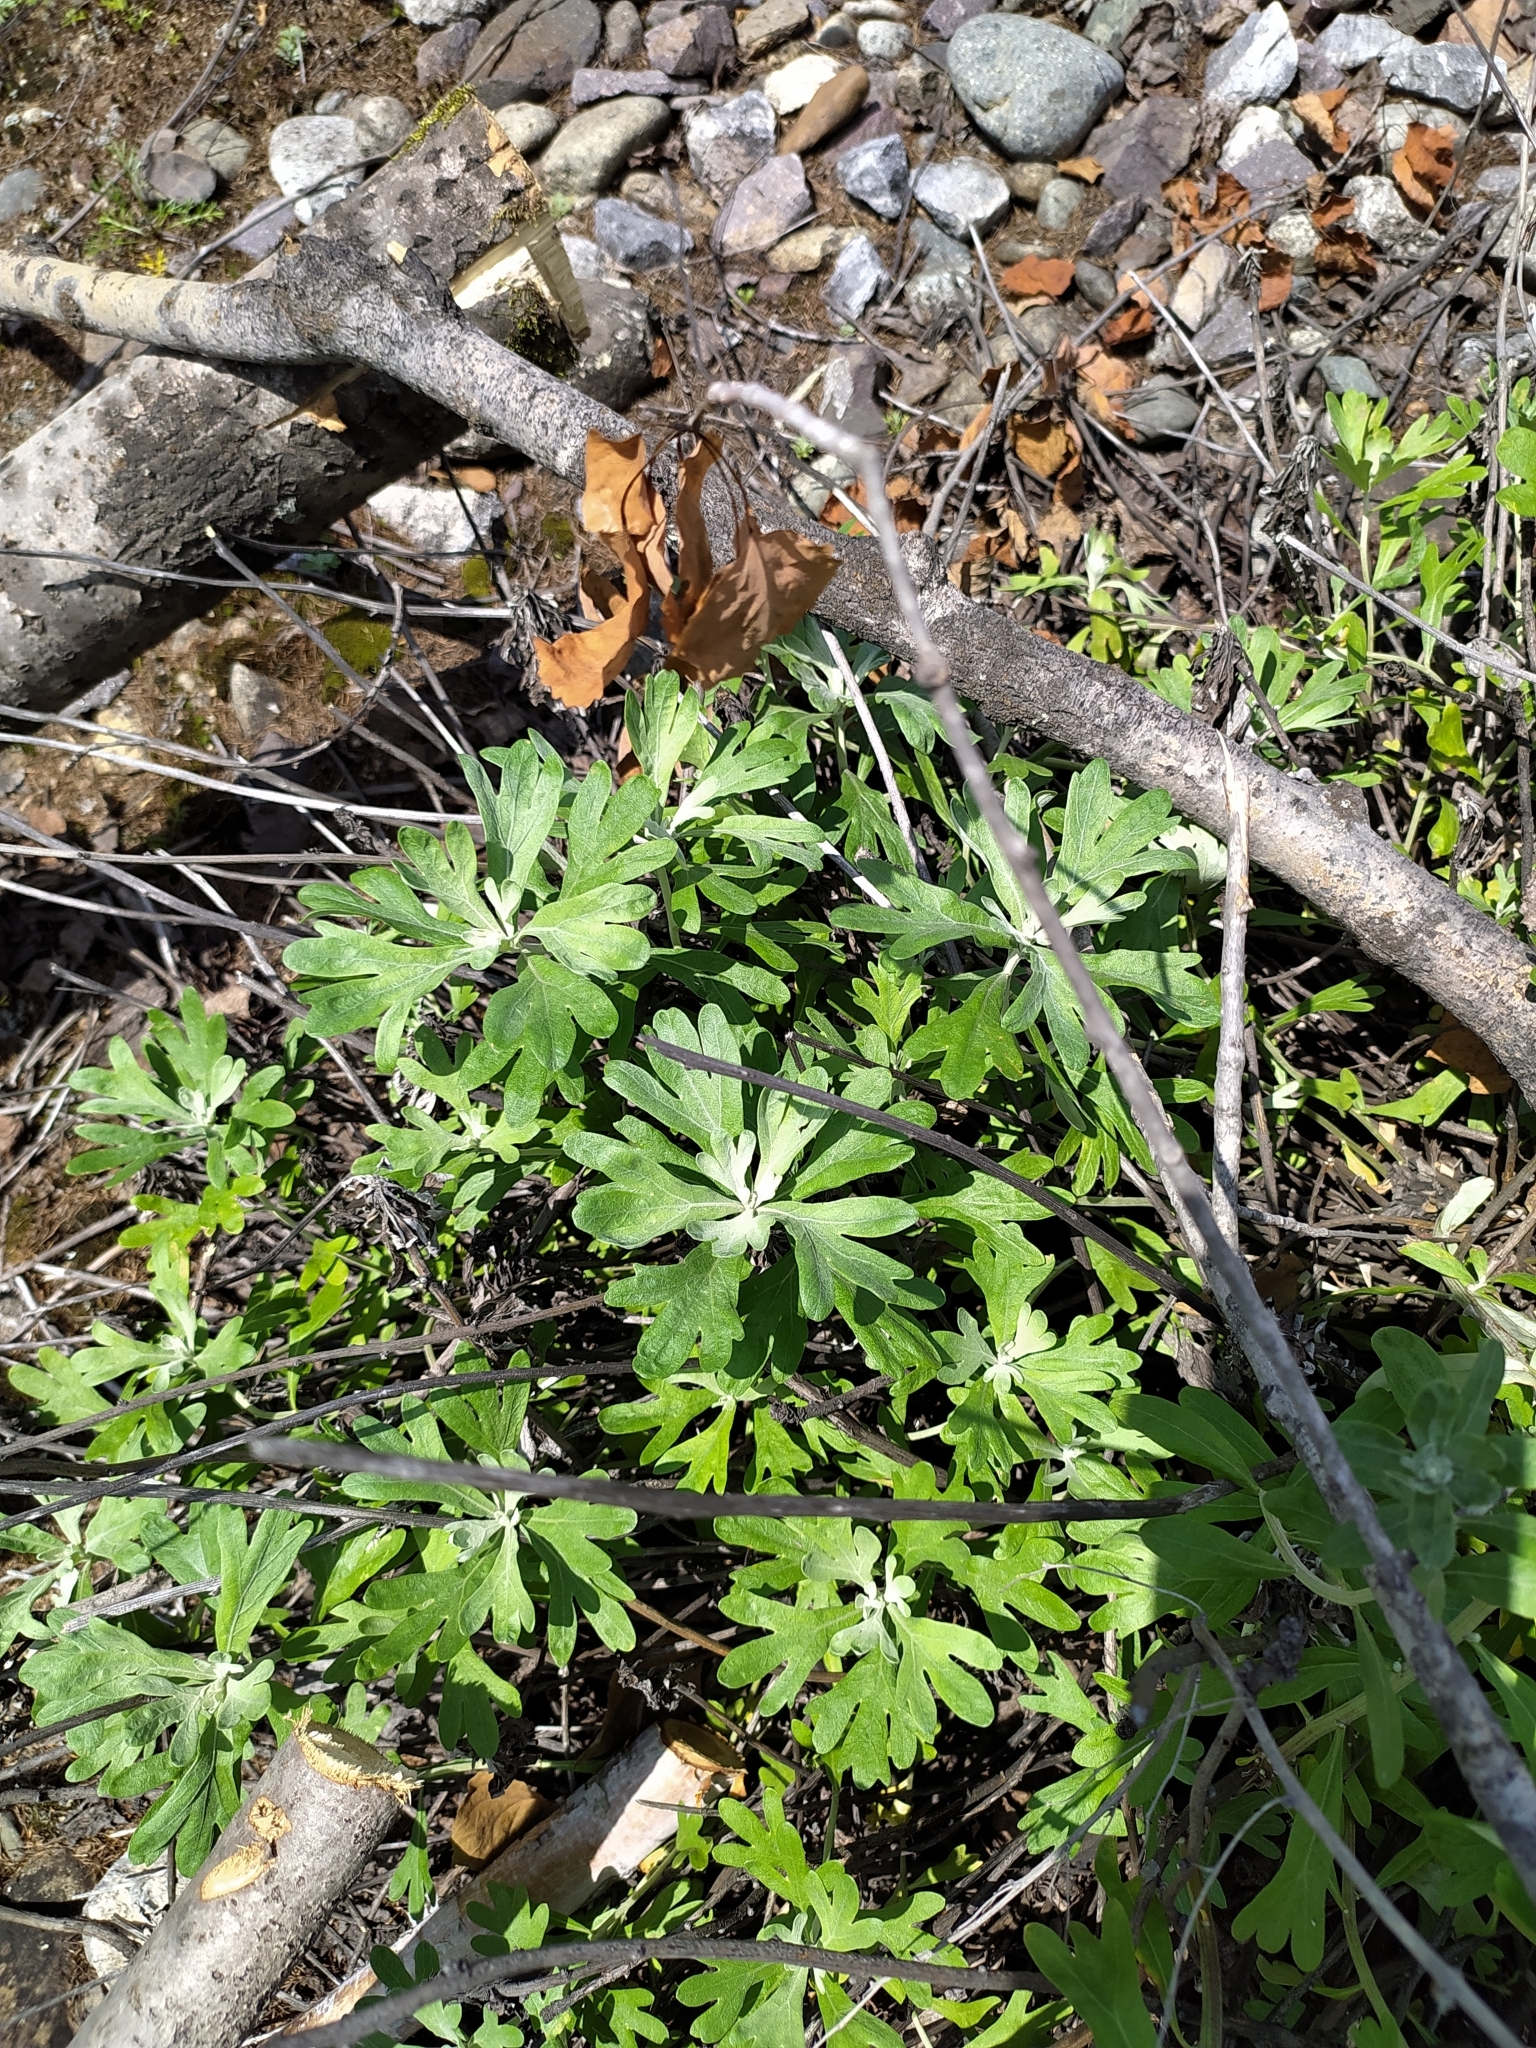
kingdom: Plantae
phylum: Tracheophyta
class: Magnoliopsida
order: Asterales
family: Asteraceae
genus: Artemisia
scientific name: Artemisia lagocephala
